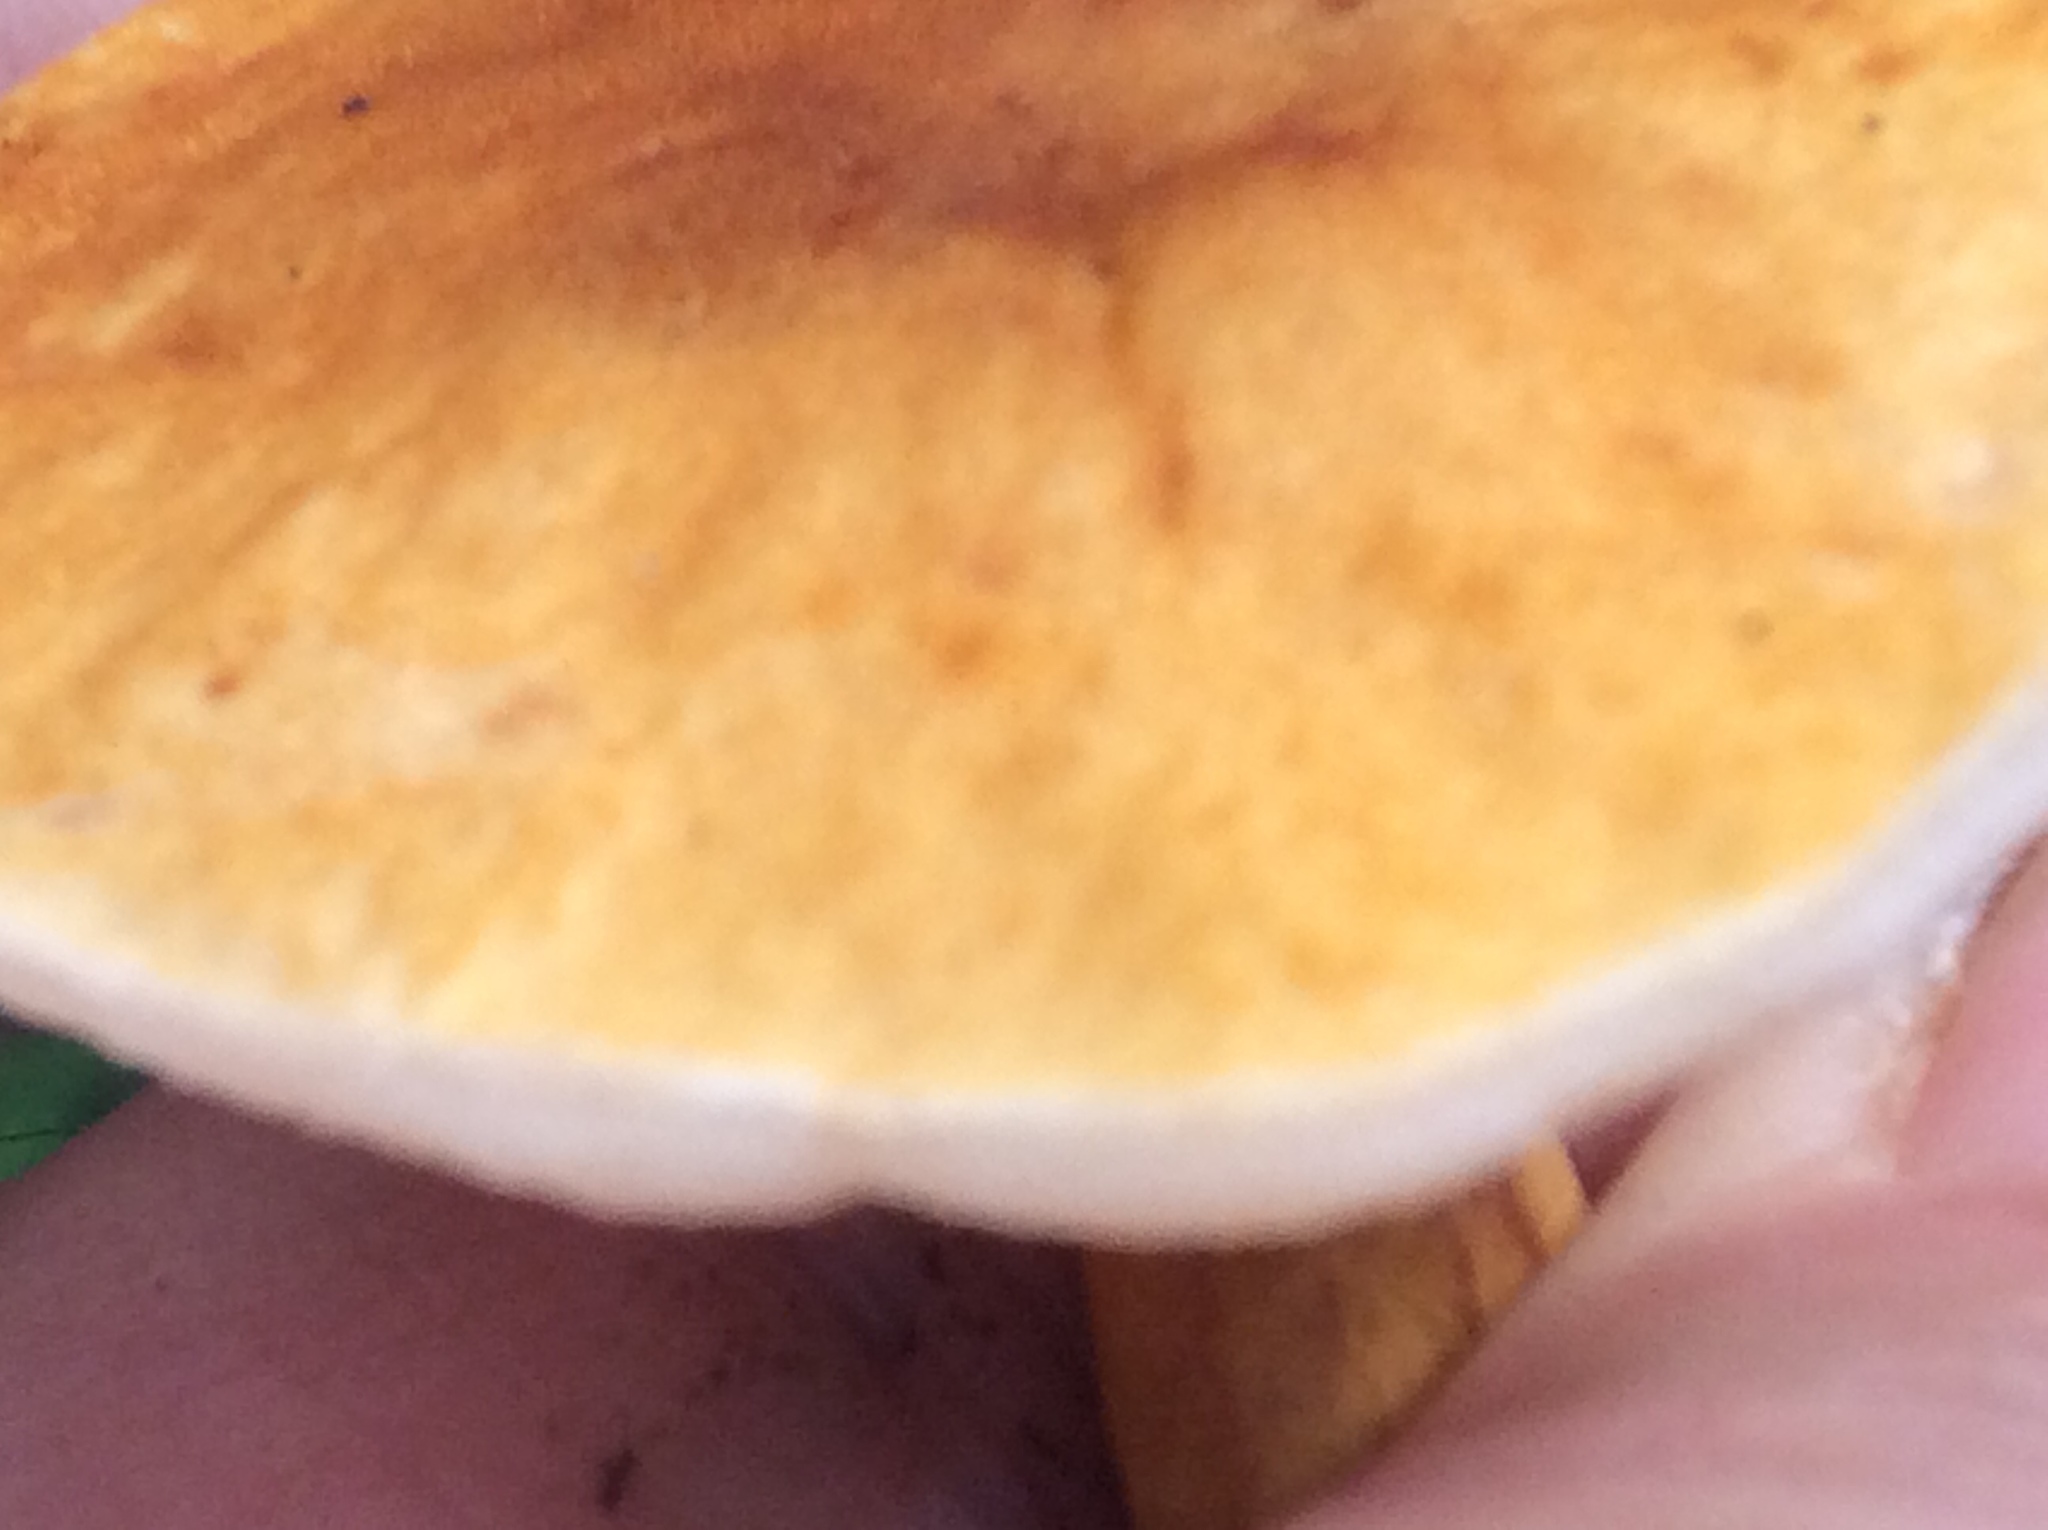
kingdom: Fungi
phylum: Basidiomycota
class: Agaricomycetes
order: Boletales
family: Gyroporaceae
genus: Gyroporus
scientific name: Gyroporus castaneus
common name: Chestnut bolete
